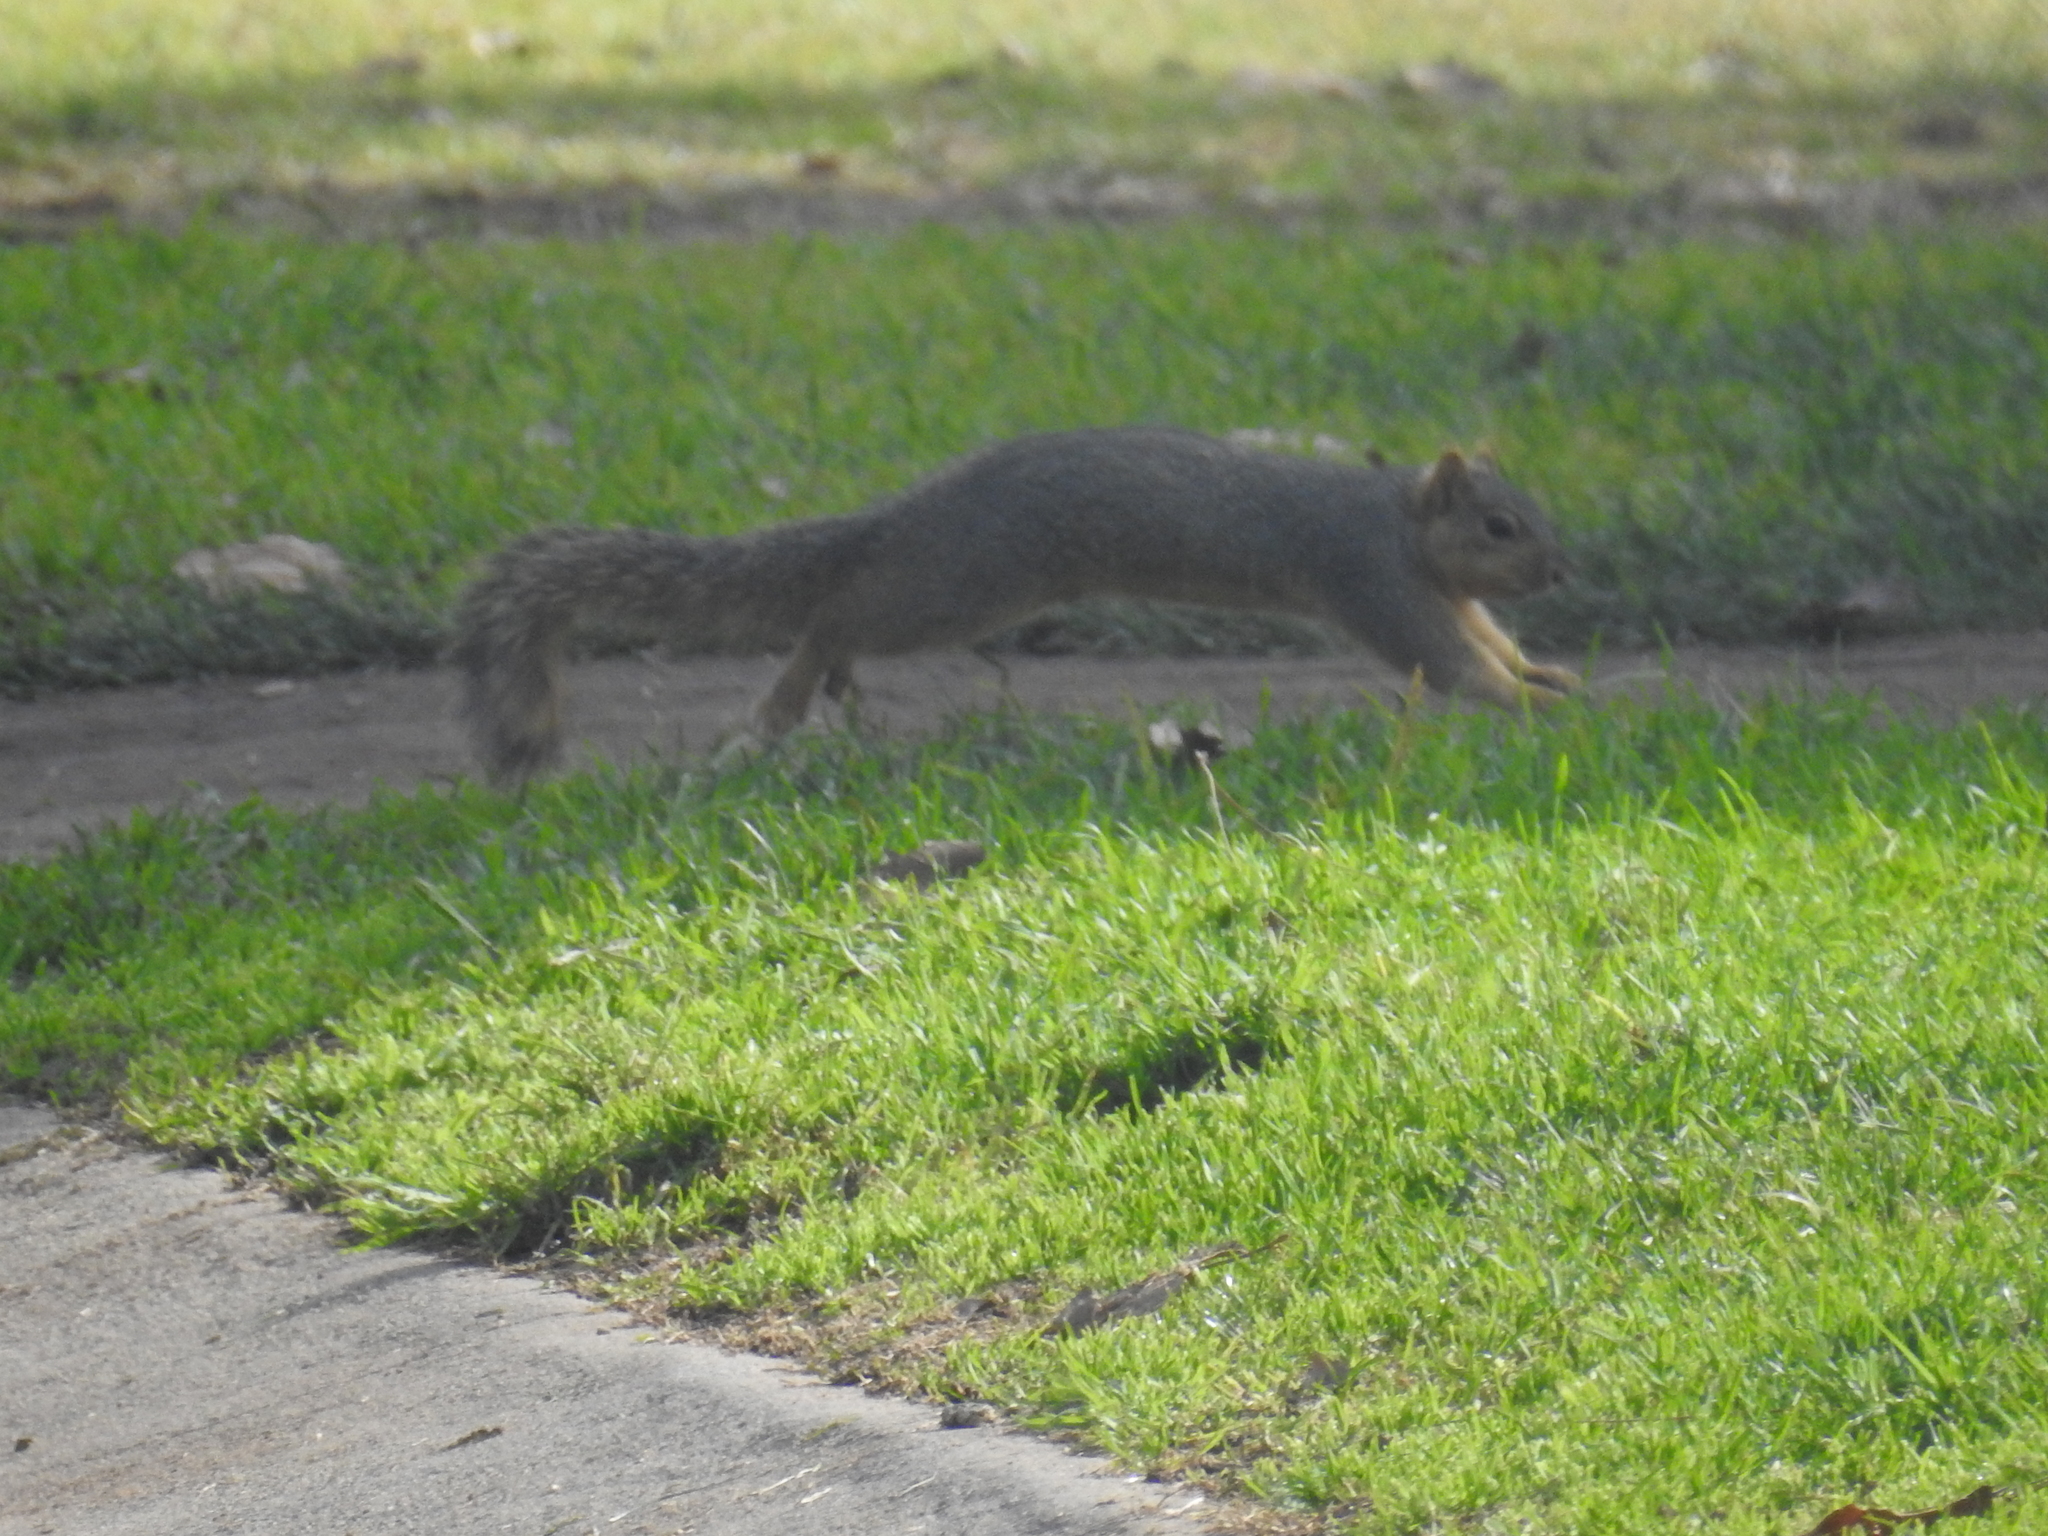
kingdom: Animalia
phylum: Chordata
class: Mammalia
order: Rodentia
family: Sciuridae
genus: Sciurus
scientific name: Sciurus niger
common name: Fox squirrel
